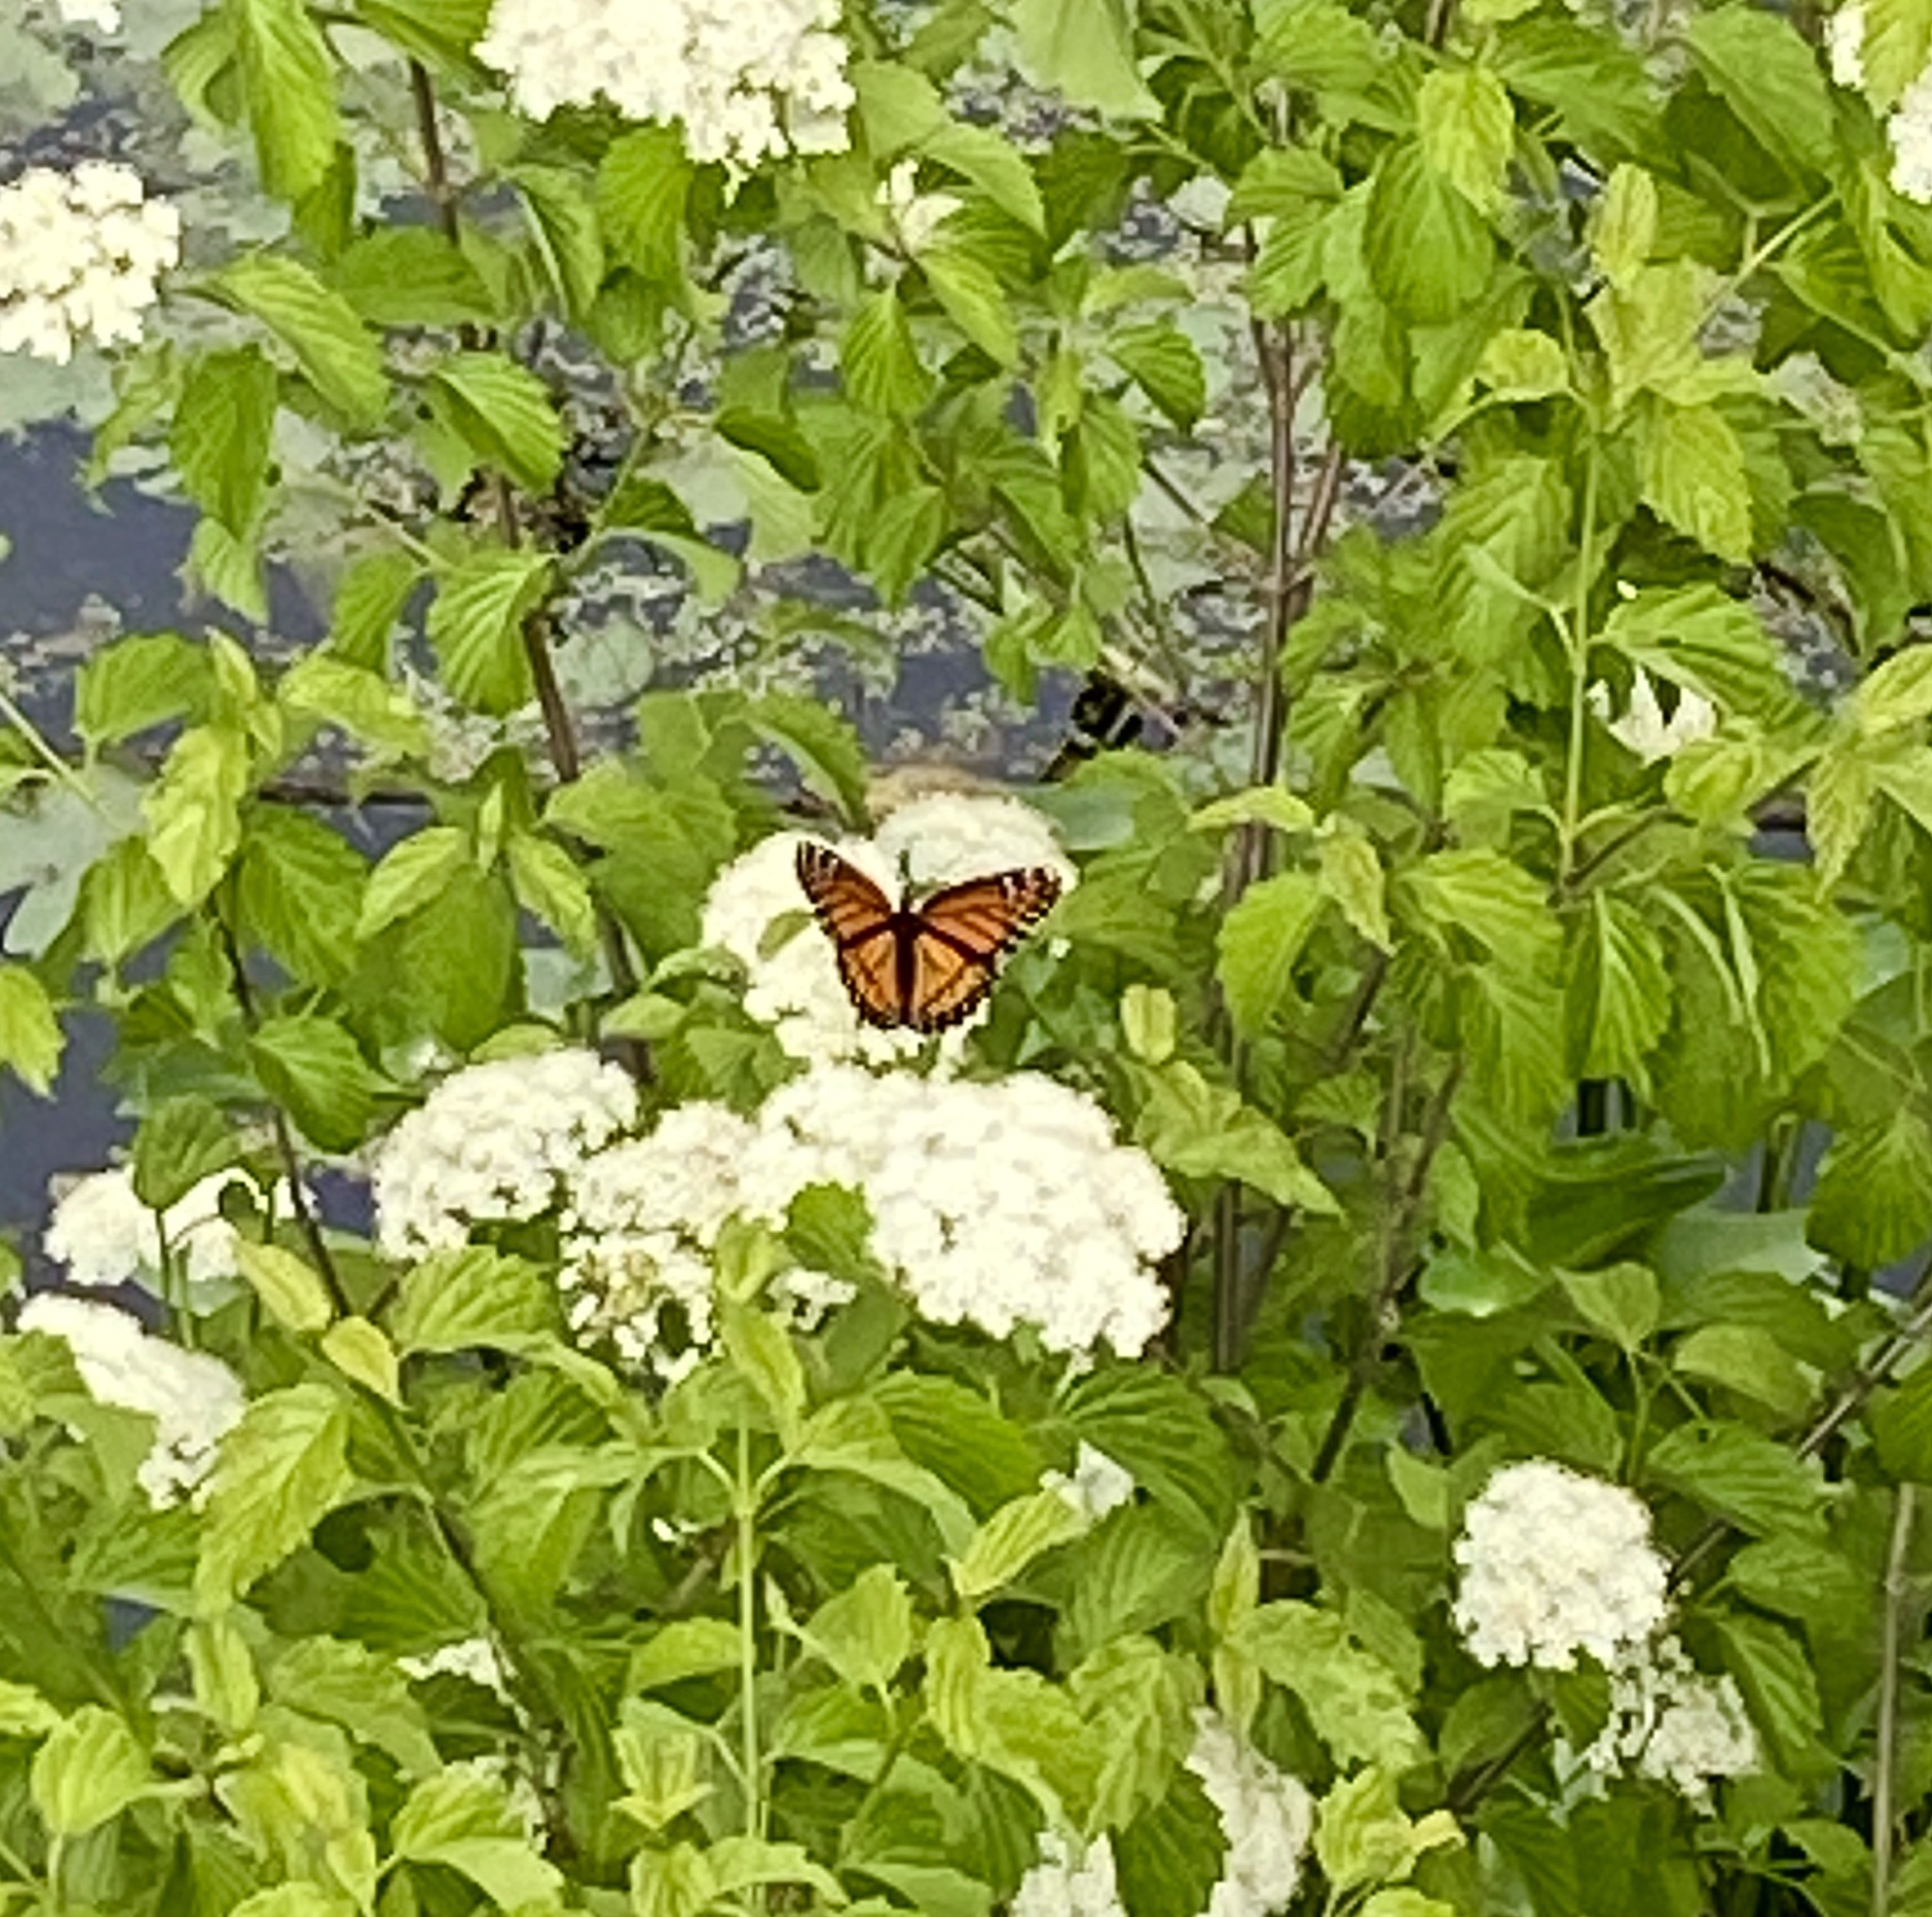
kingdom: Animalia
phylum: Arthropoda
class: Insecta
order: Lepidoptera
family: Nymphalidae
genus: Limenitis
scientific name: Limenitis archippus
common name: Viceroy
